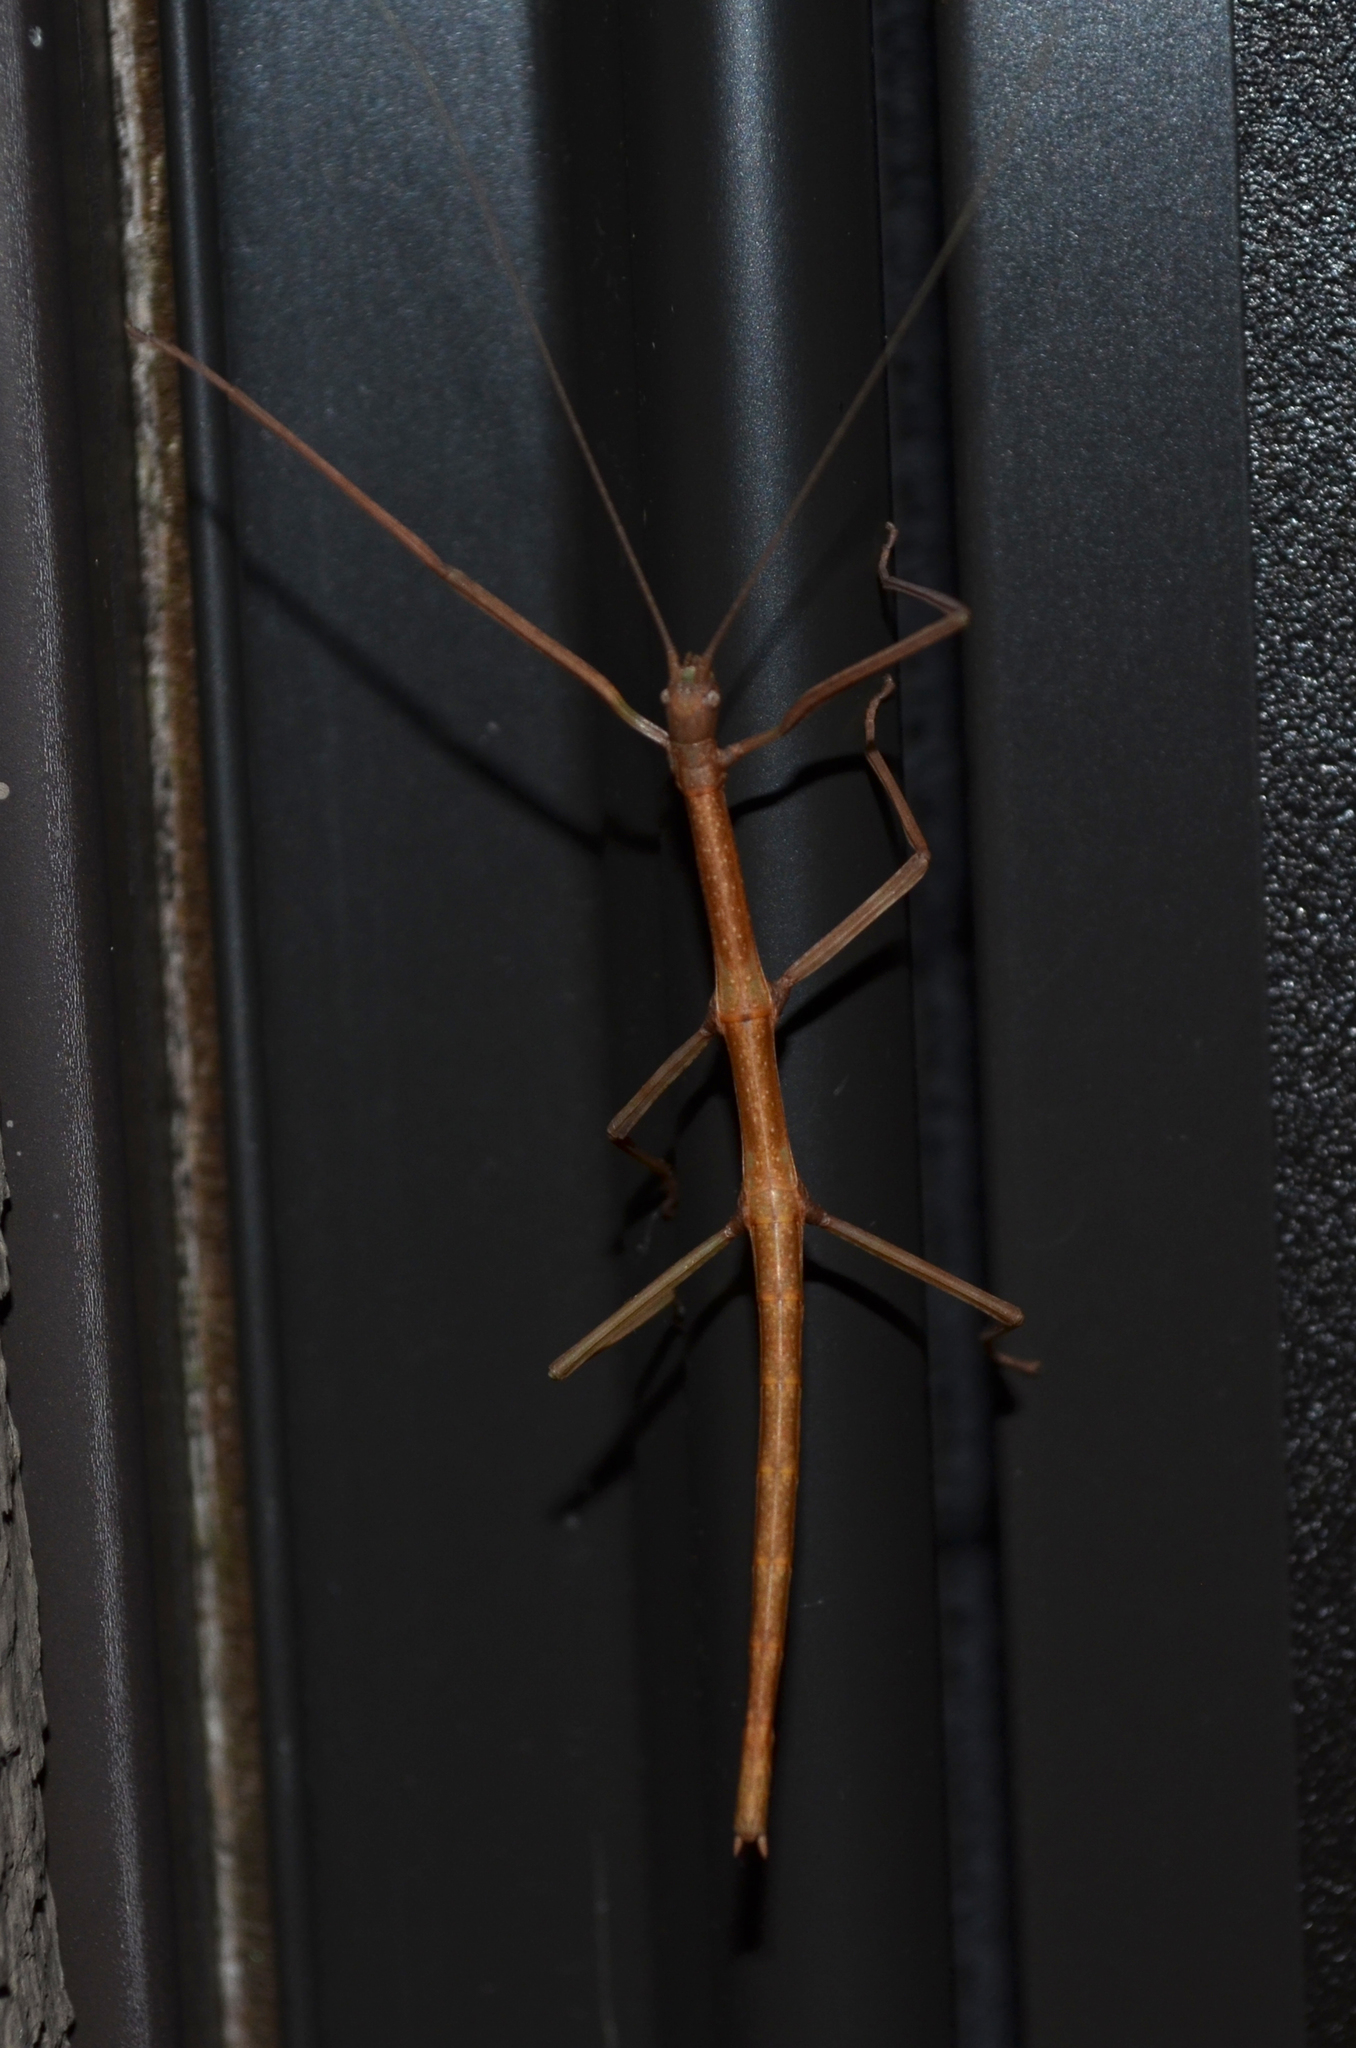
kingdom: Animalia
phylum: Arthropoda
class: Insecta
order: Phasmida
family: Diapheromeridae
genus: Diapheromera
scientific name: Diapheromera femorata
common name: Common american walkingstick
